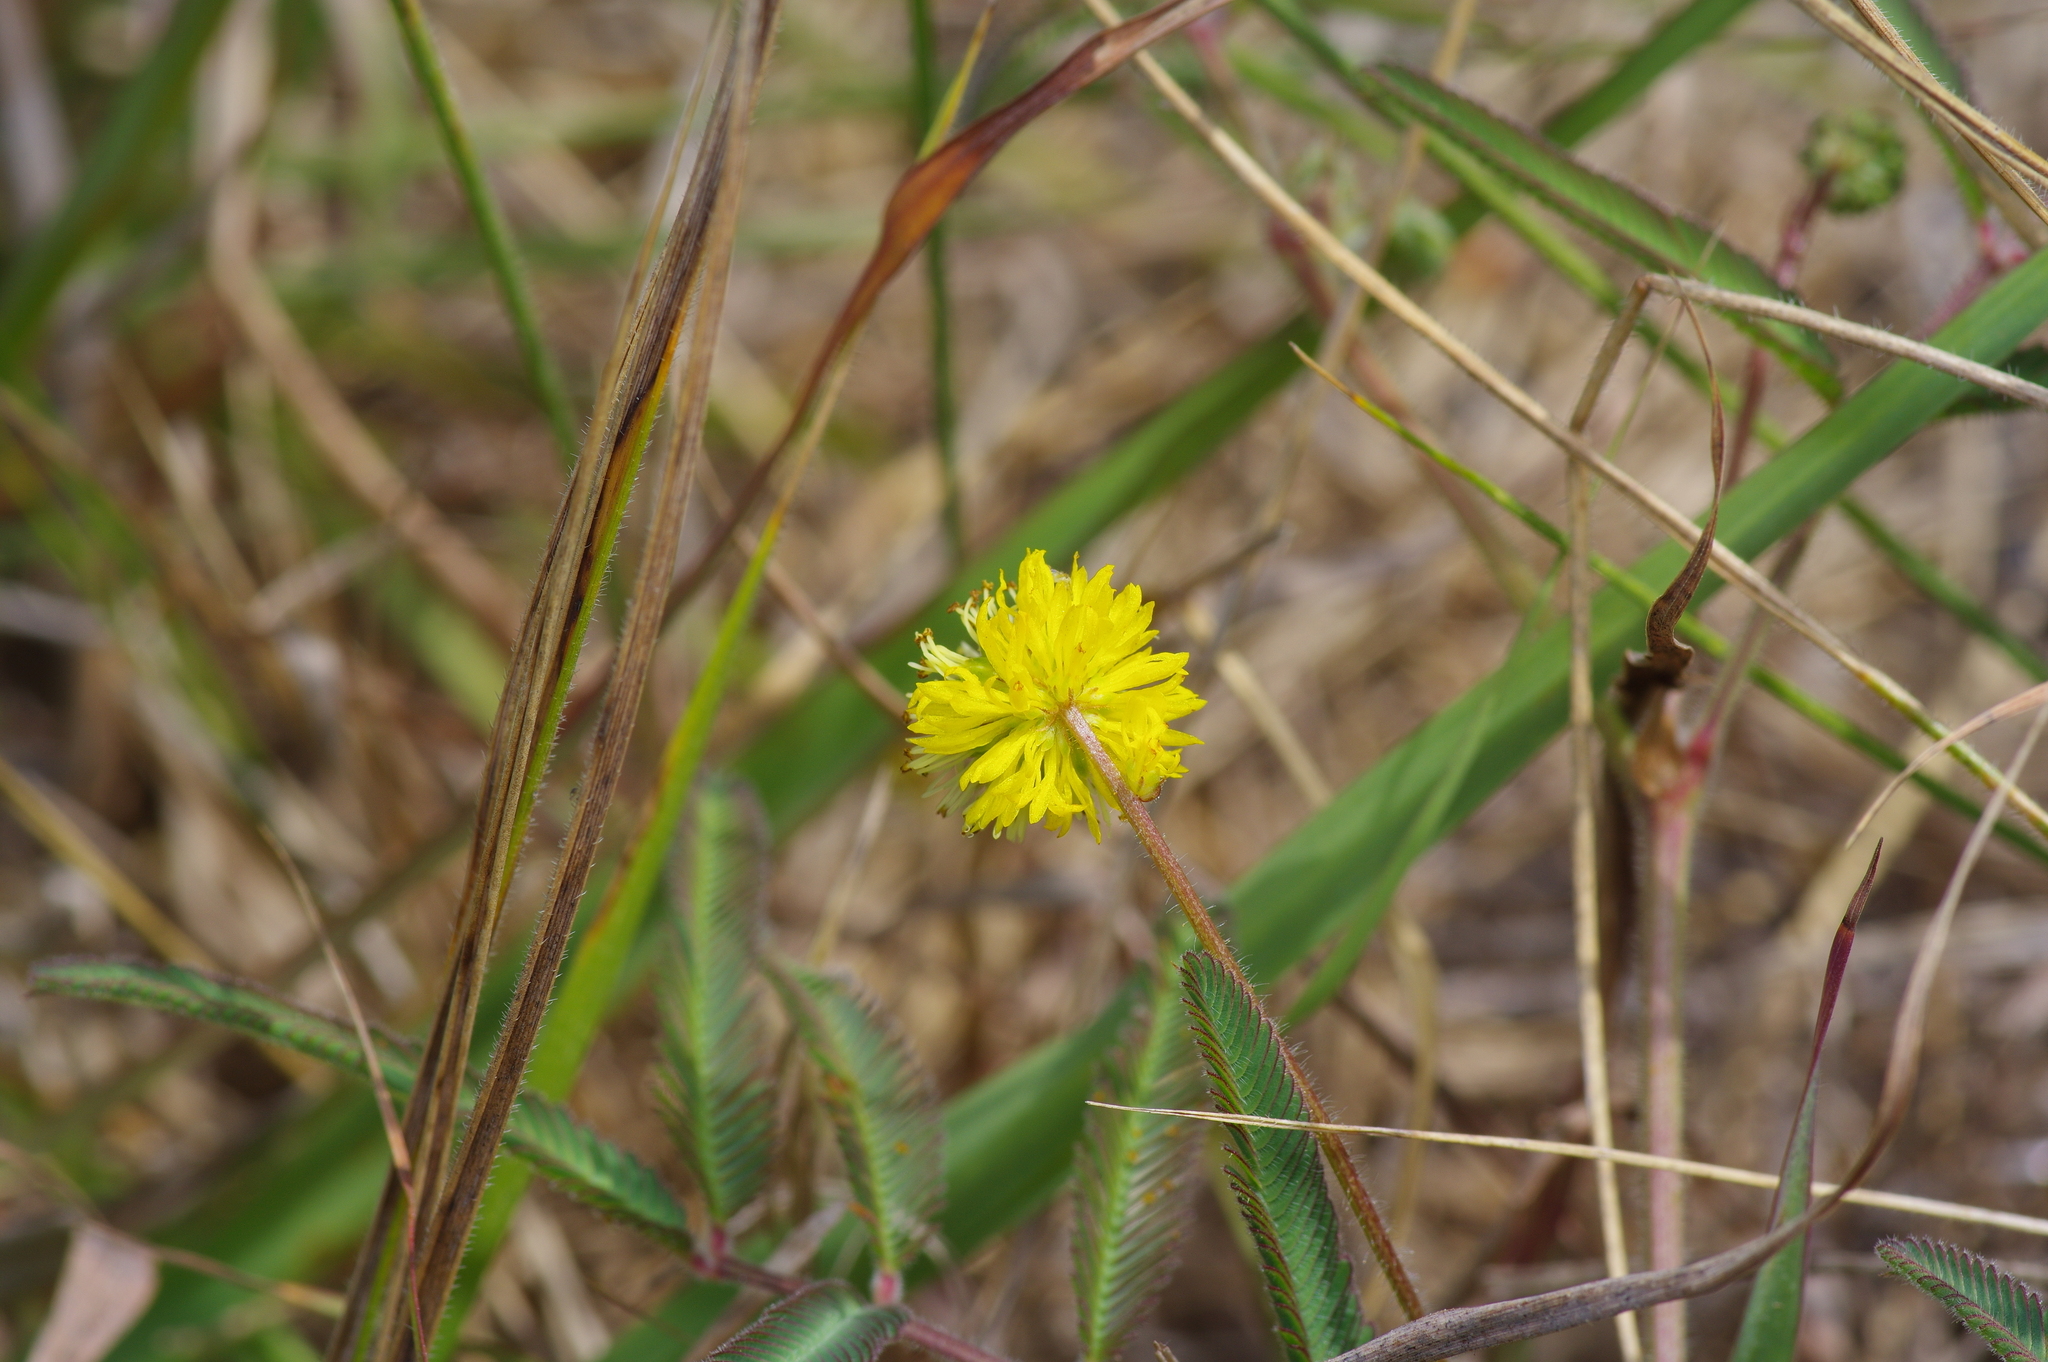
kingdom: Plantae
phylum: Tracheophyta
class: Magnoliopsida
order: Fabales
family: Fabaceae
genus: Neptunia
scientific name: Neptunia pubescens
